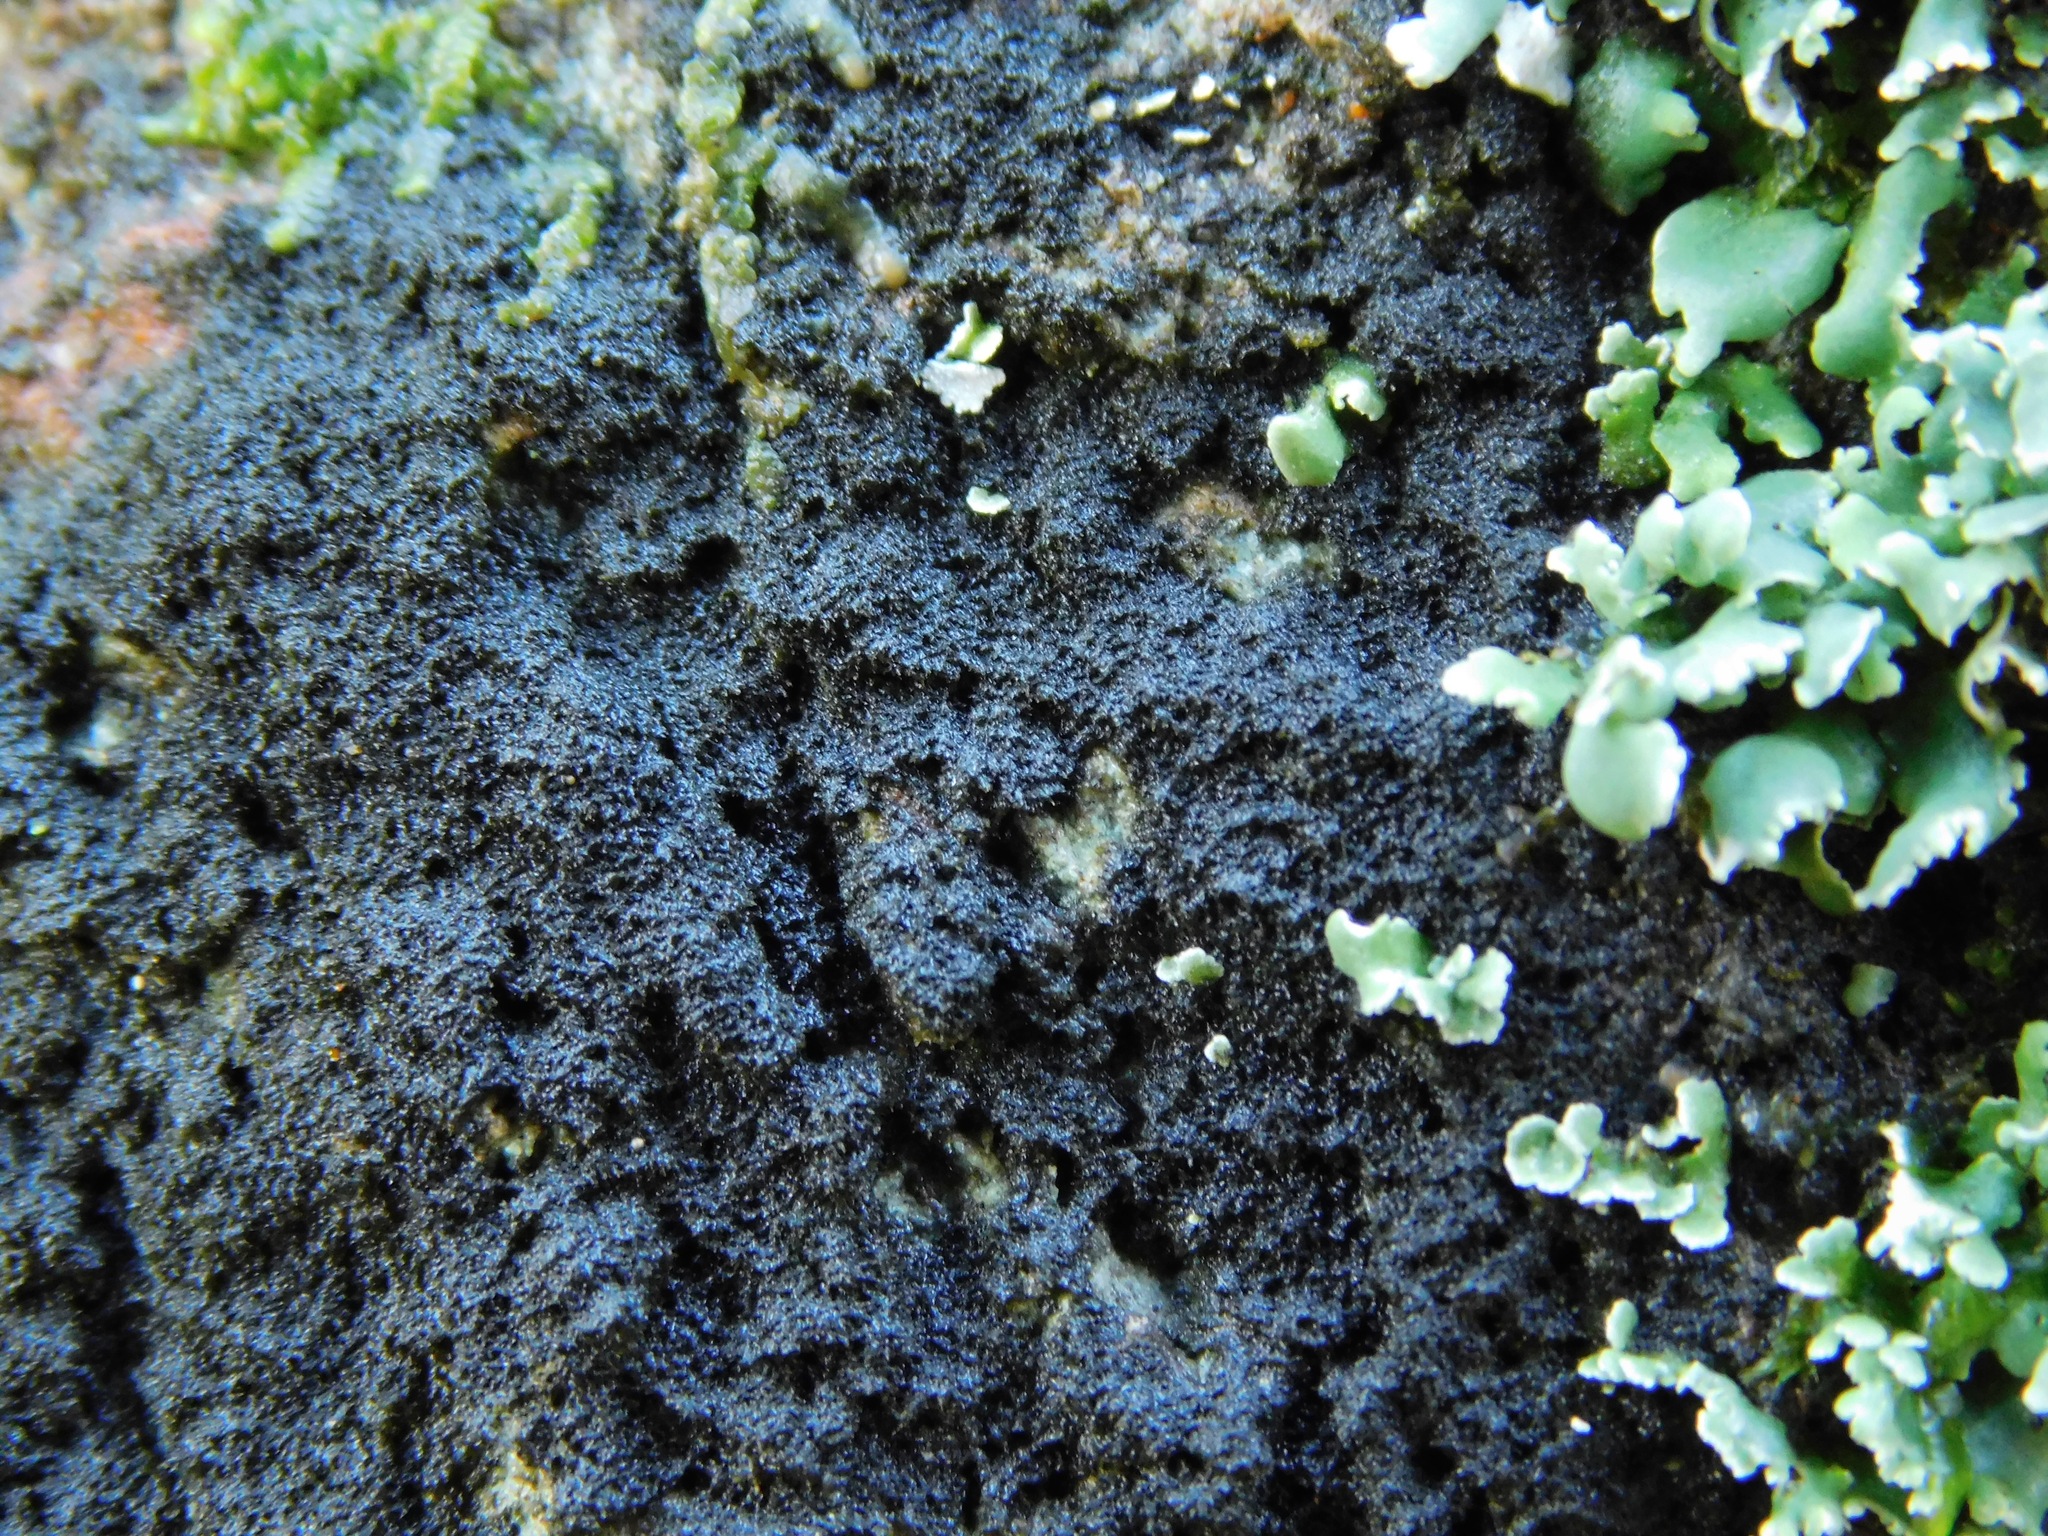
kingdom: Fungi
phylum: Ascomycota
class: Lecanoromycetes
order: Peltigerales
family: Collemataceae
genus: Scytinium
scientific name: Scytinium lichenoides
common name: Tattered jellyskin lichen
